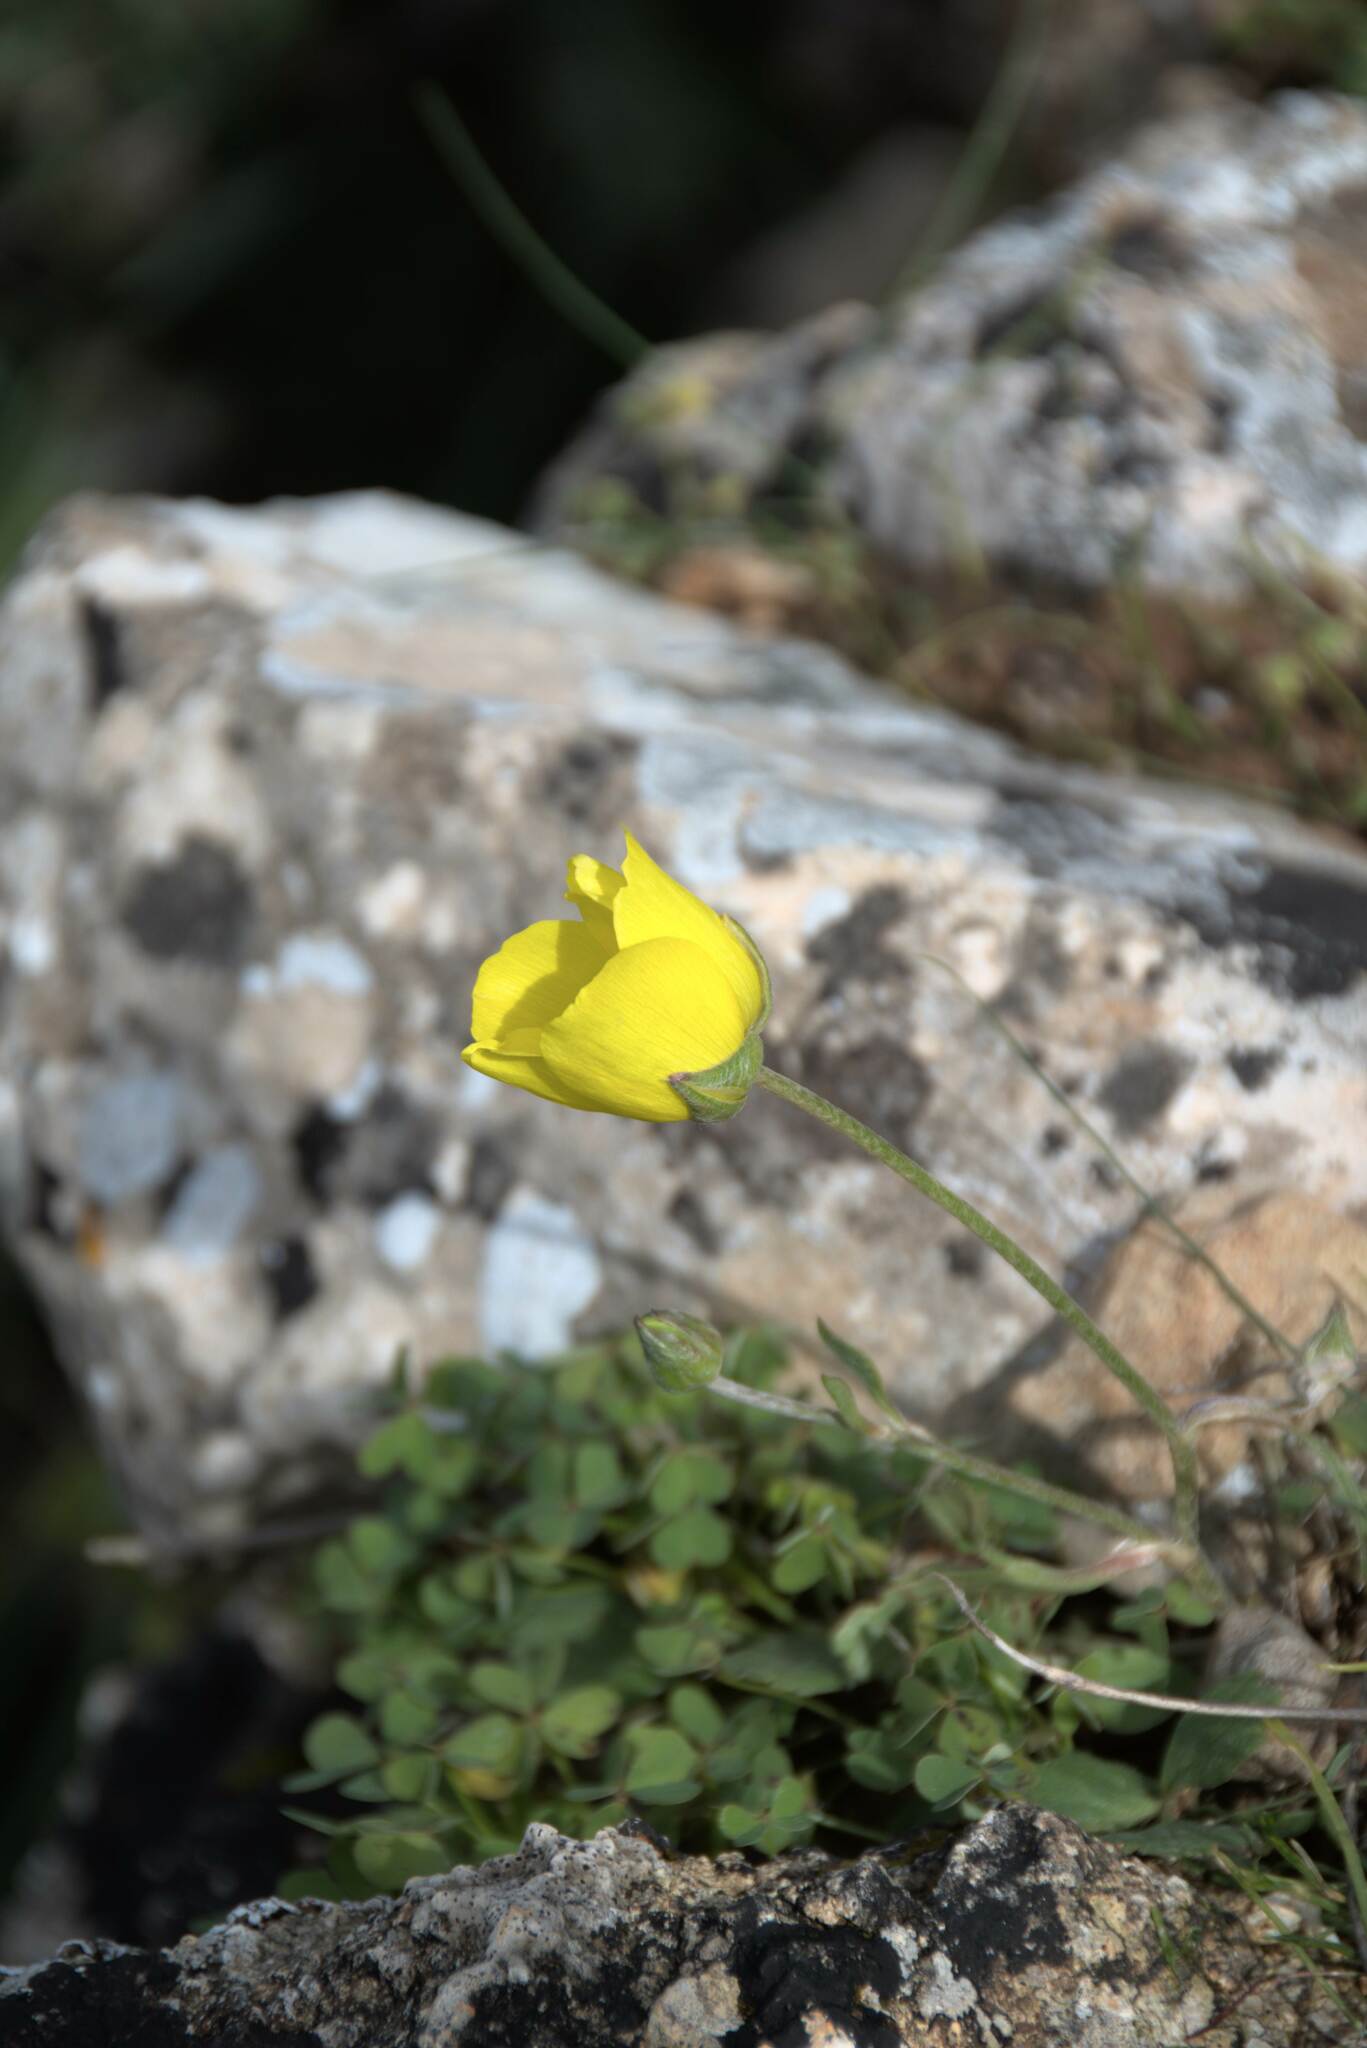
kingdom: Plantae
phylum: Tracheophyta
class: Magnoliopsida
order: Ranunculales
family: Ranunculaceae
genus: Ranunculus
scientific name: Ranunculus asiaticus
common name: Persian buttercup
